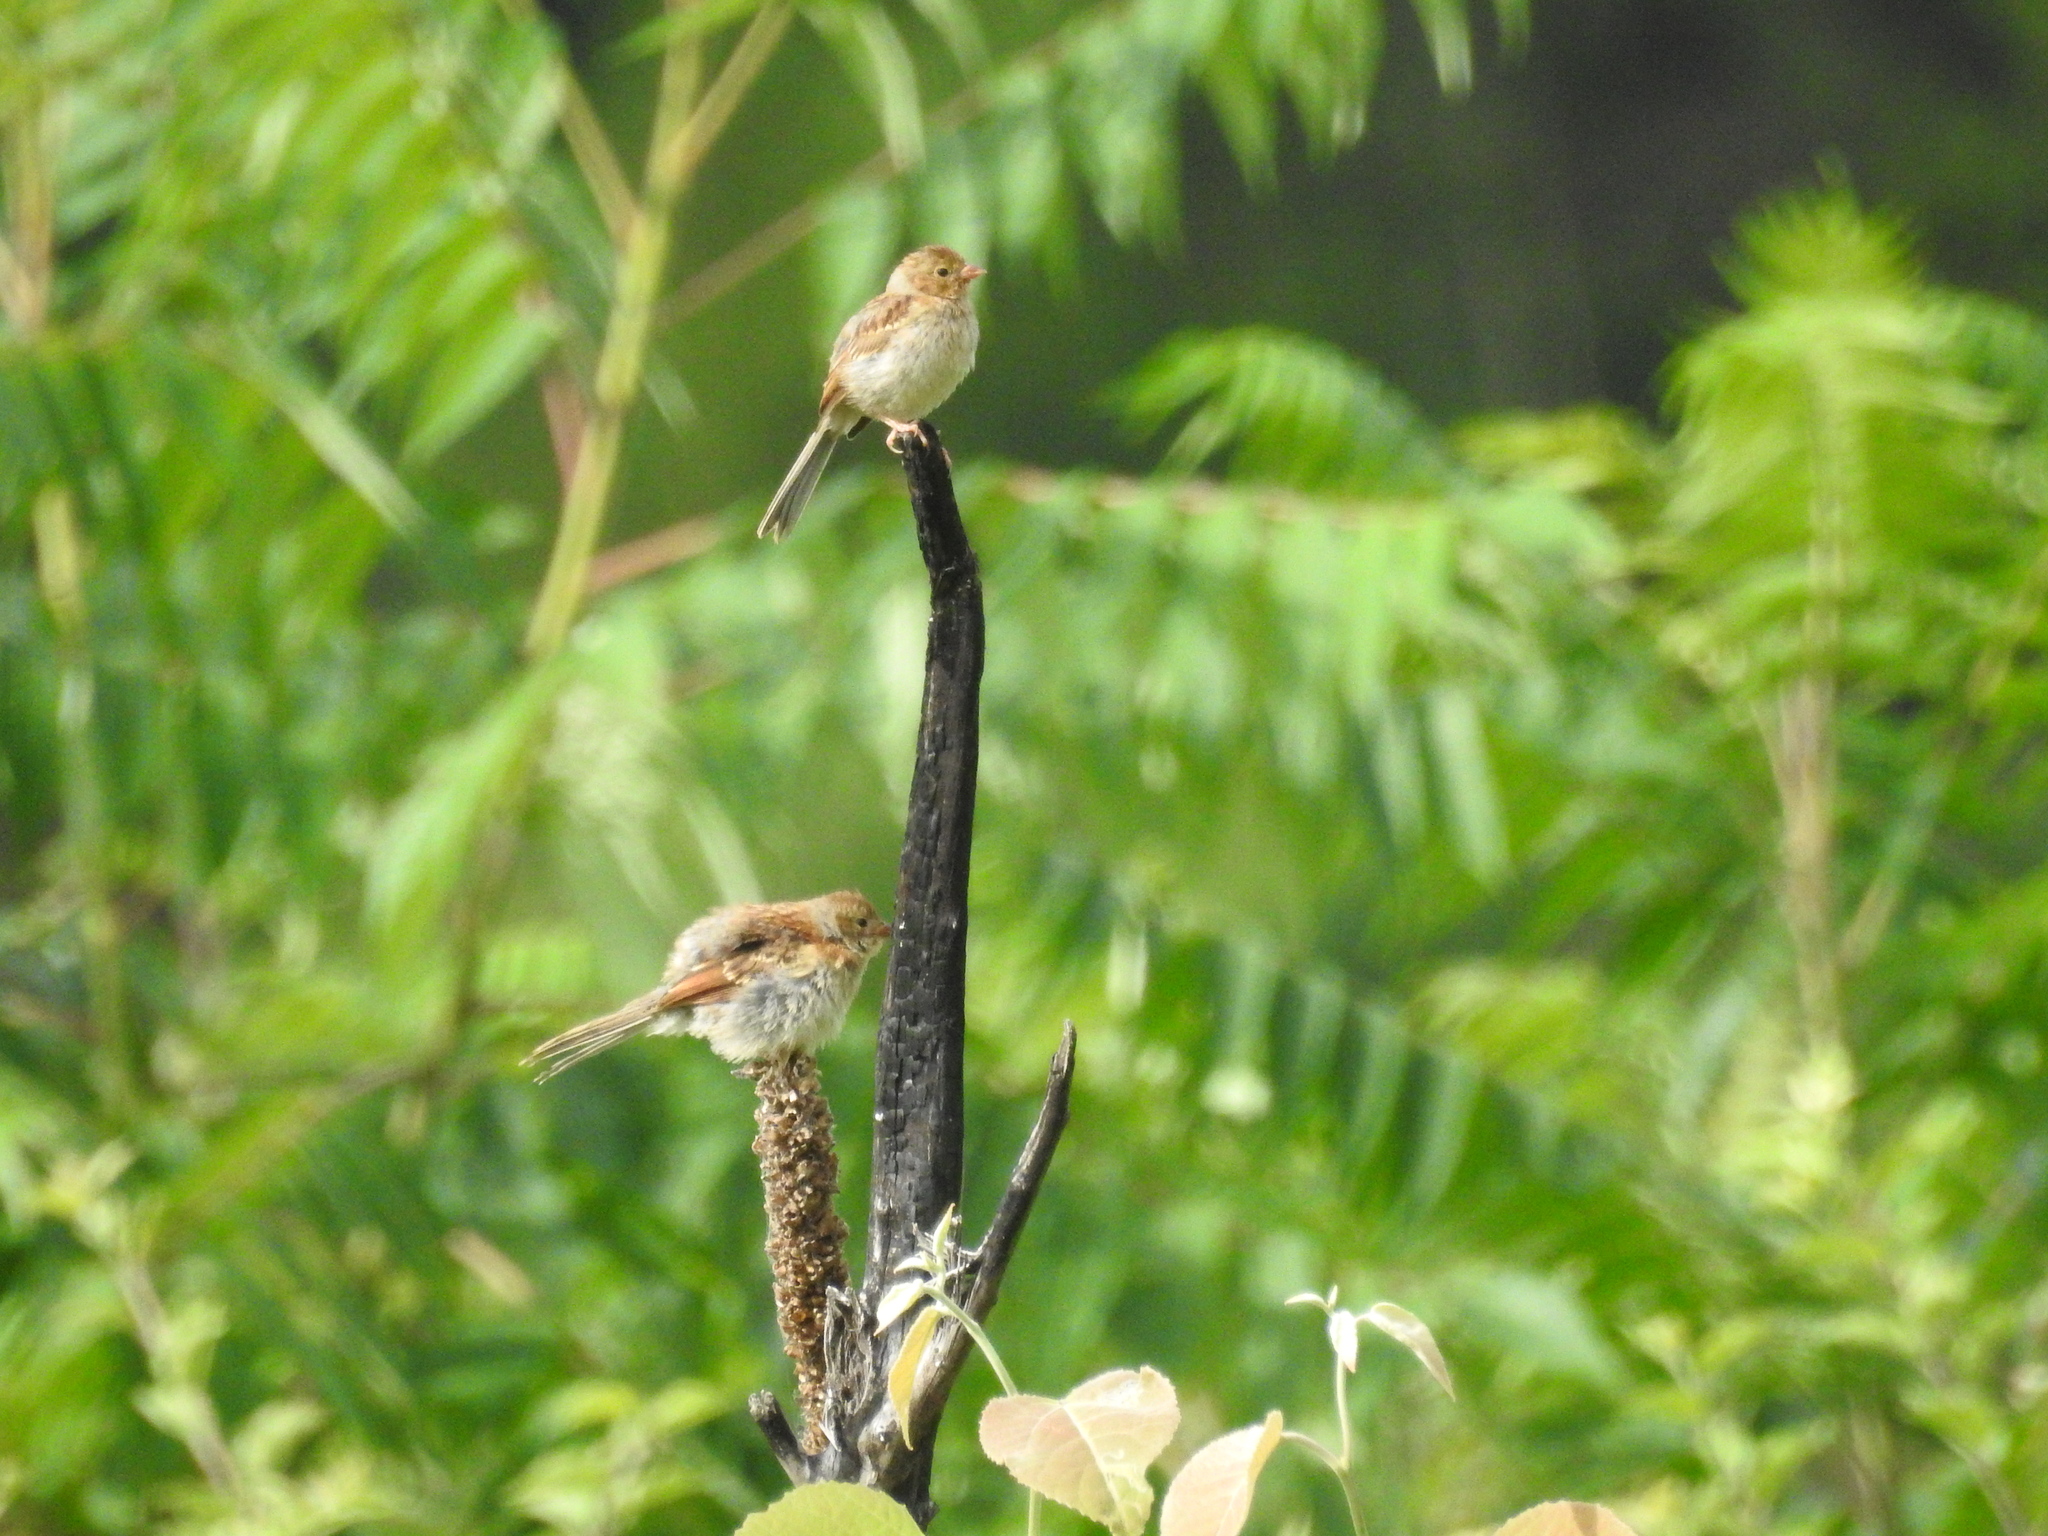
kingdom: Animalia
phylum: Chordata
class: Aves
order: Passeriformes
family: Passerellidae
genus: Spizella
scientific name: Spizella pusilla
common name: Field sparrow
